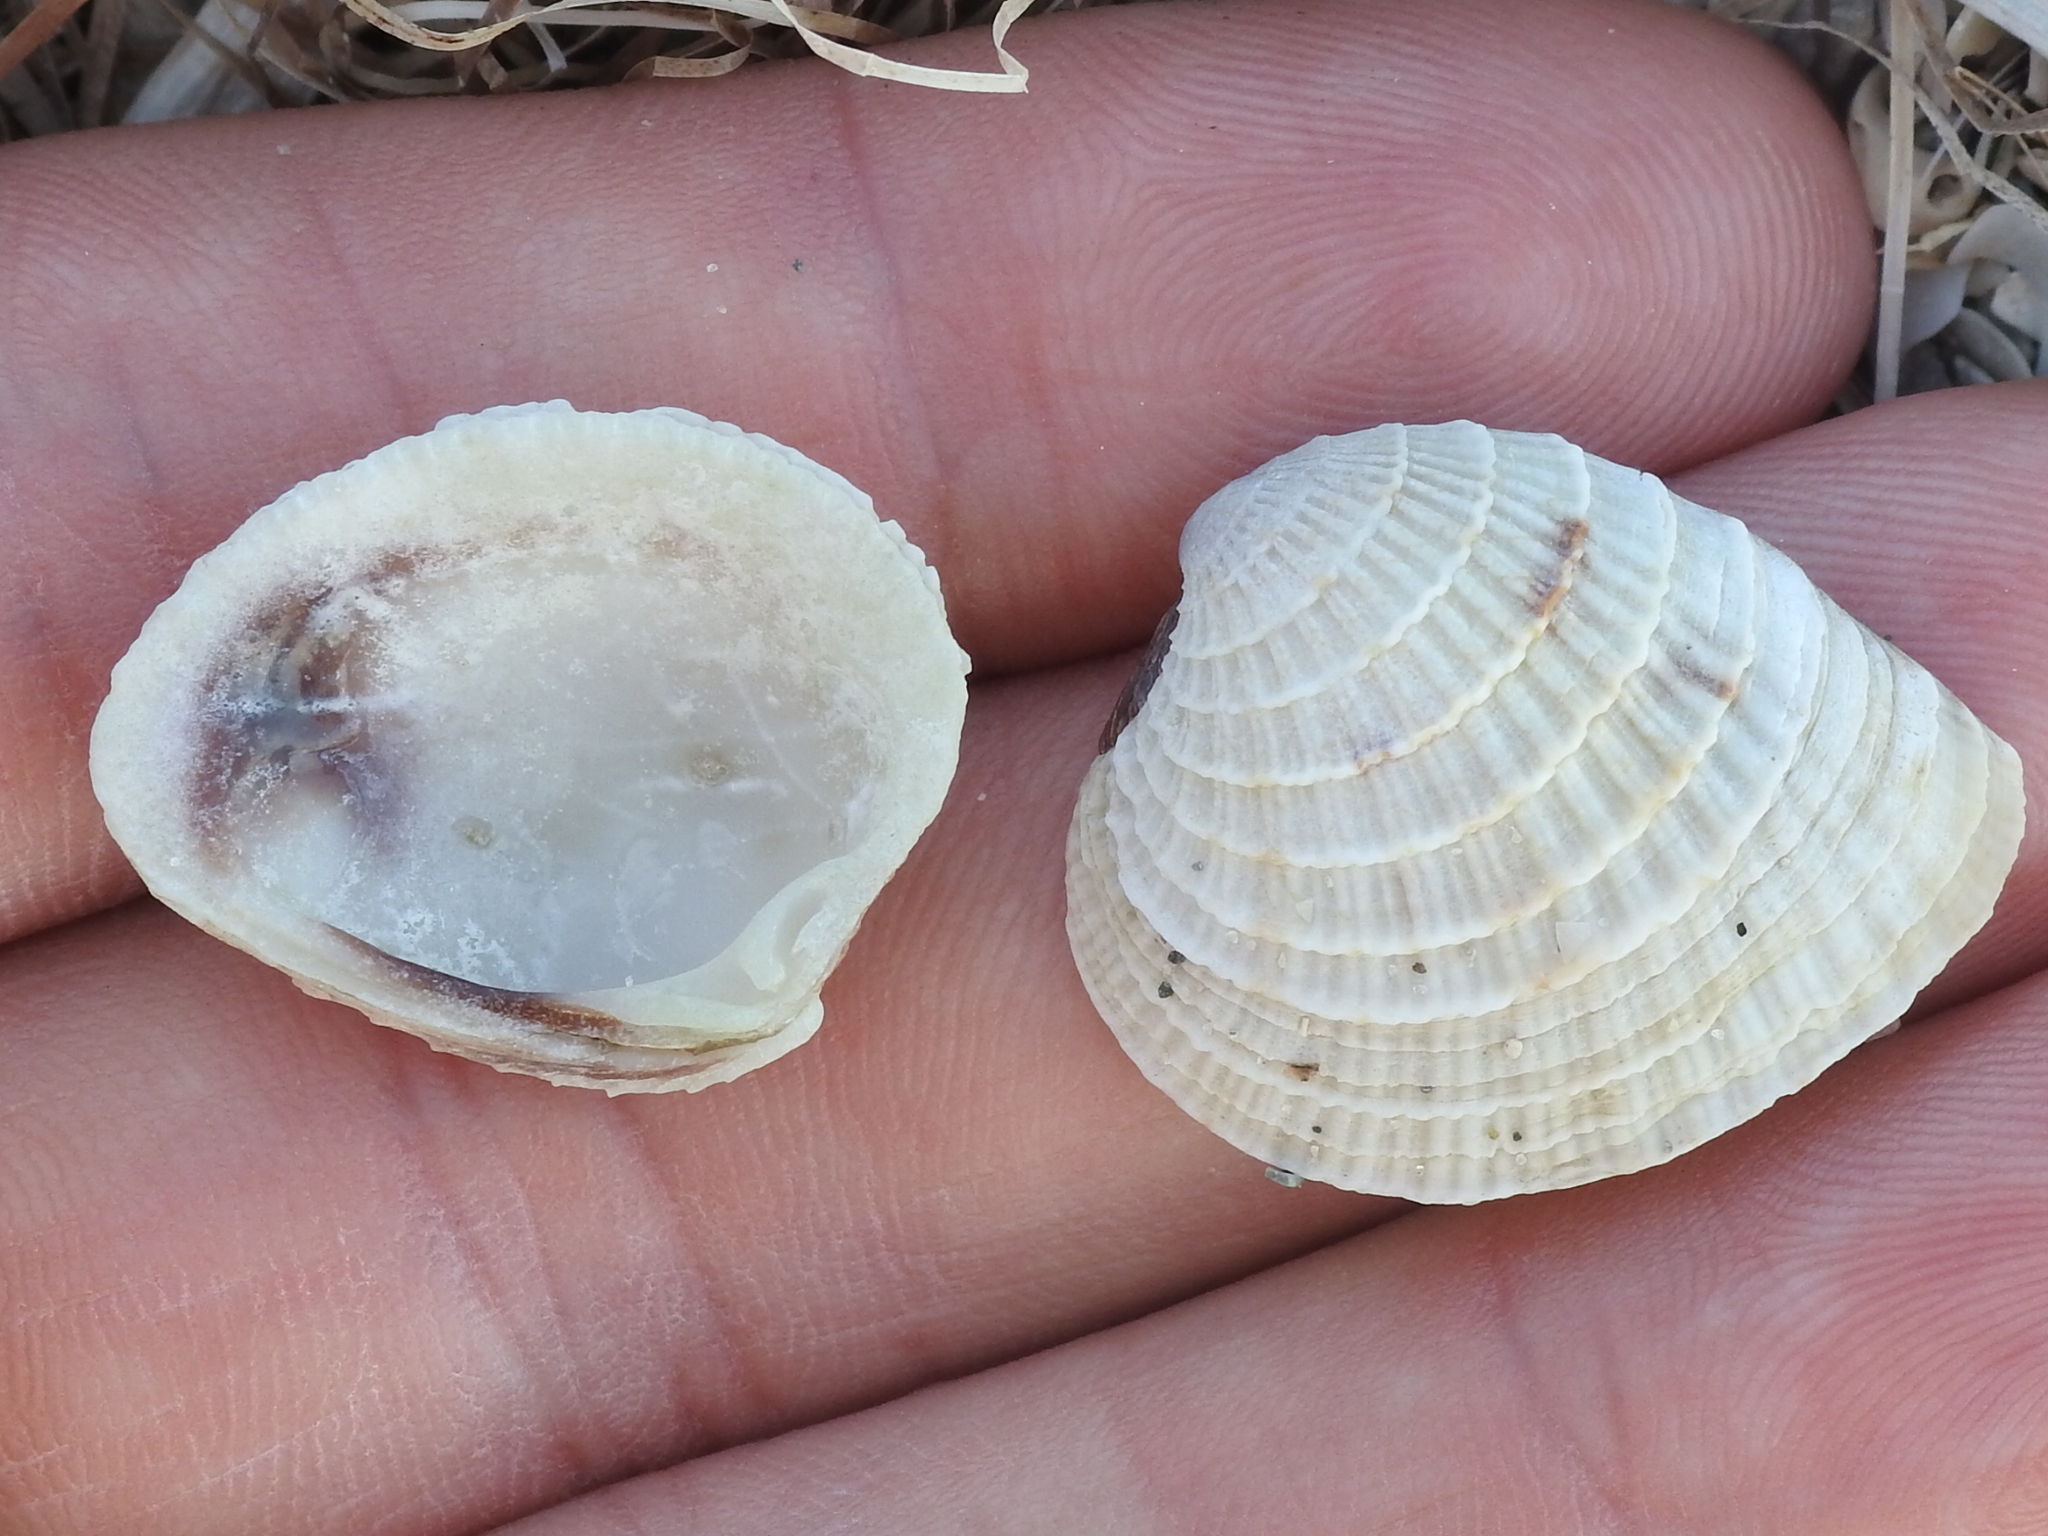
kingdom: Animalia
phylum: Mollusca
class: Bivalvia
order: Venerida
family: Veneridae
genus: Chione
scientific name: Chione elevata
